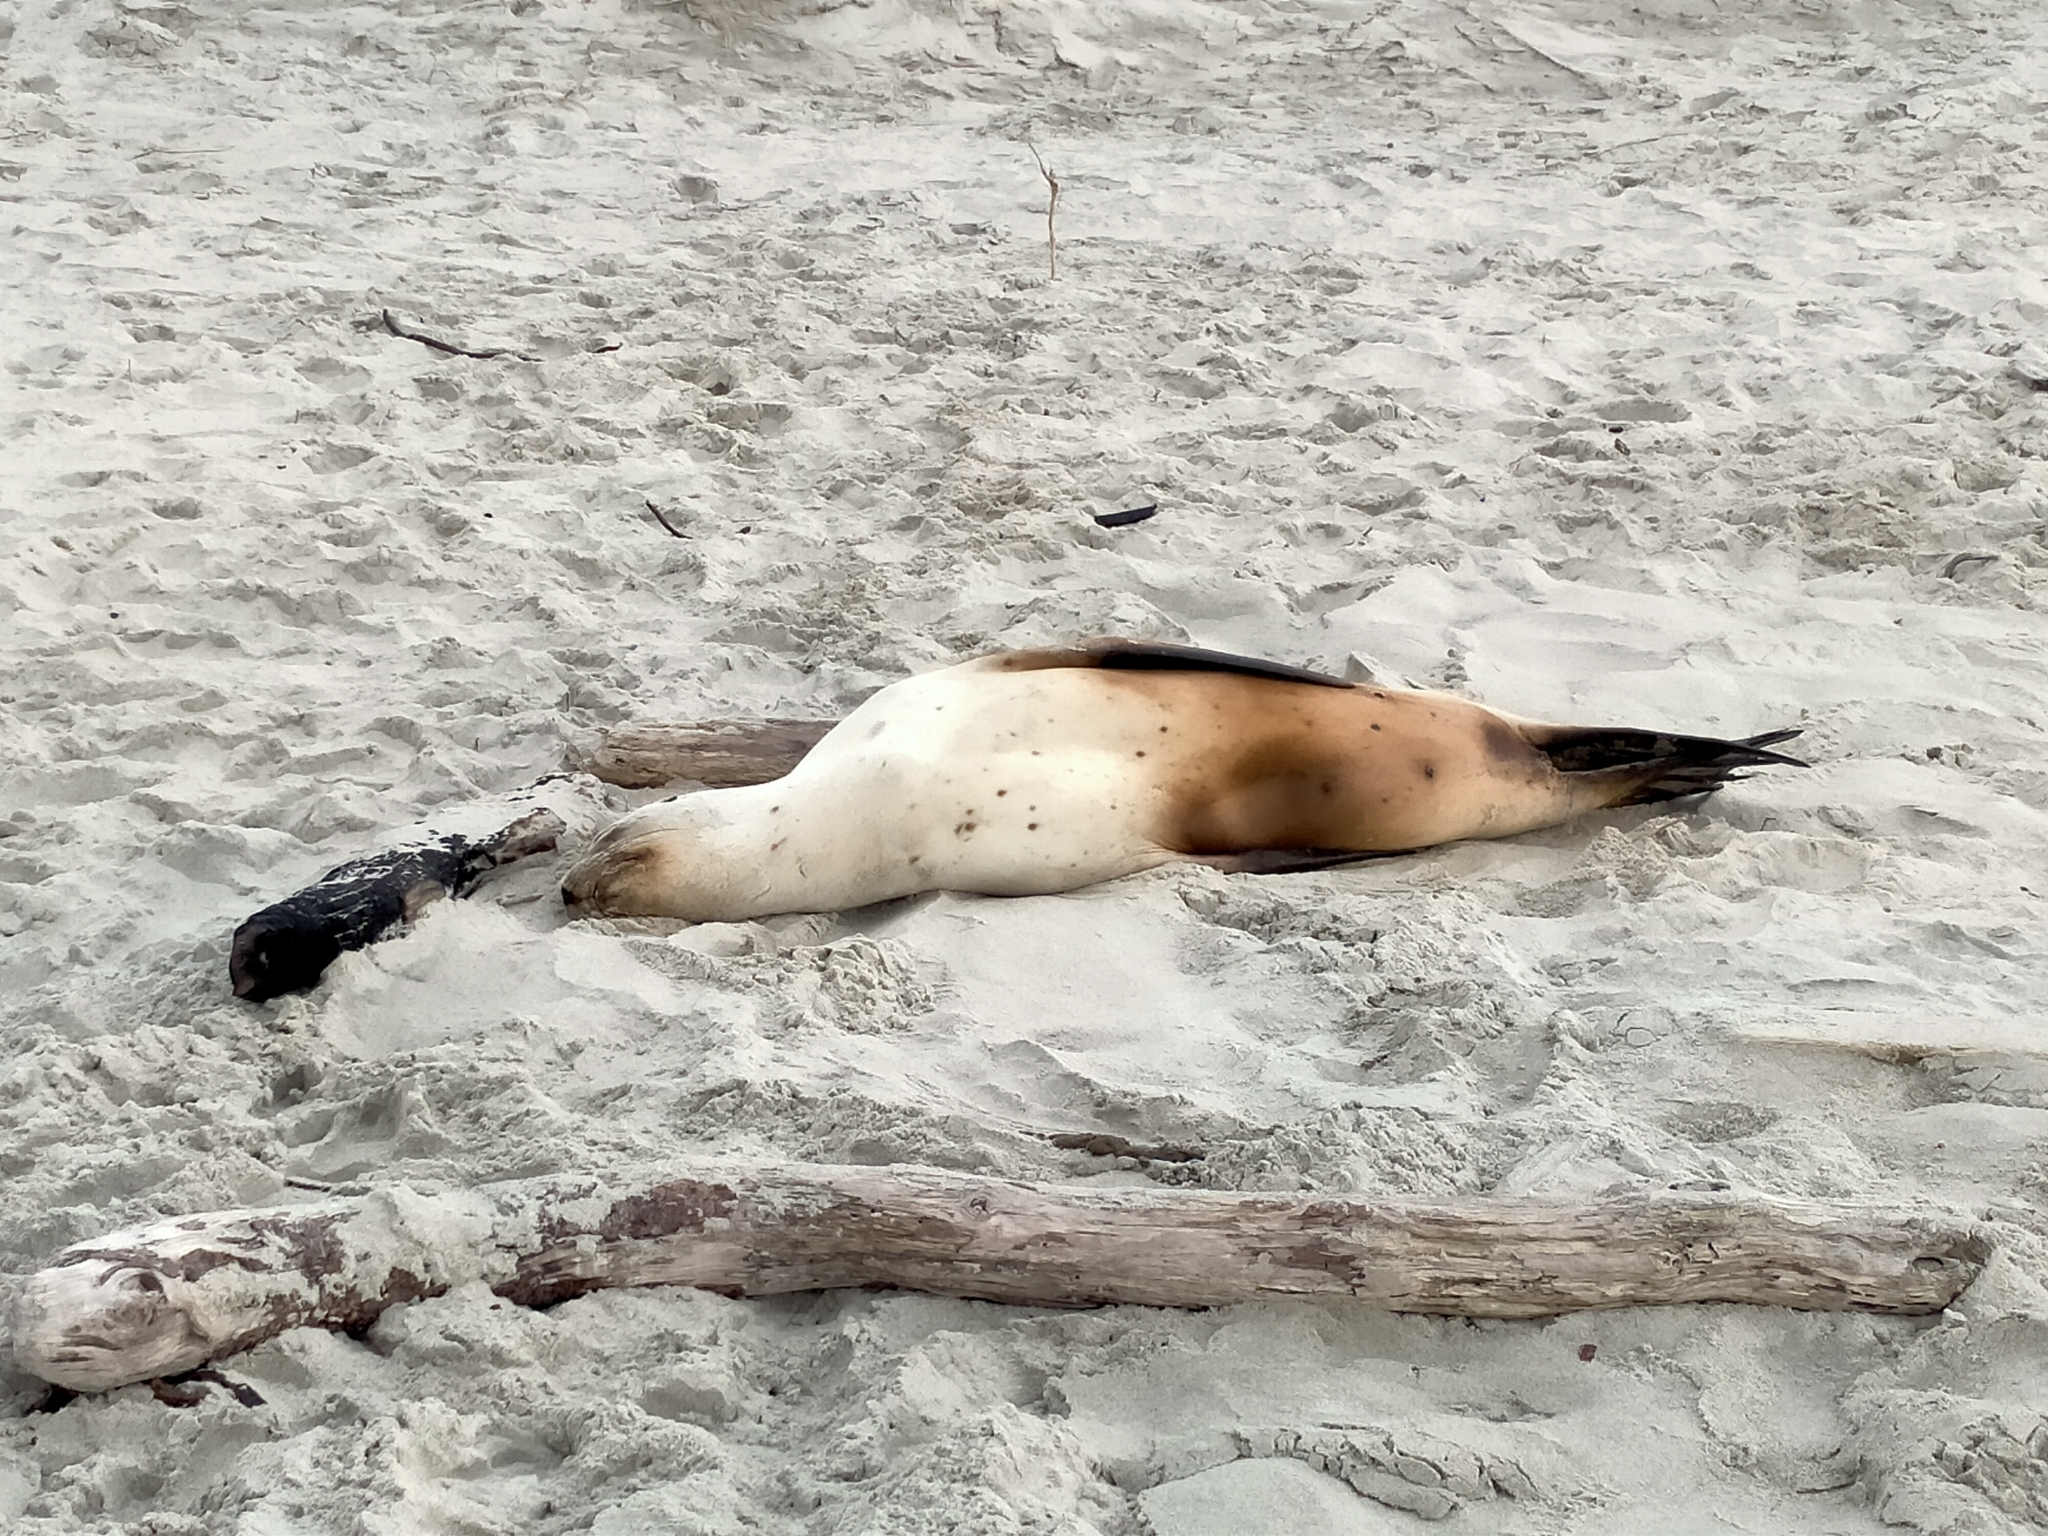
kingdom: Animalia
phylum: Chordata
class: Mammalia
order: Carnivora
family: Otariidae
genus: Phocarctos
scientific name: Phocarctos hookeri
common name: New zealand sea lion
